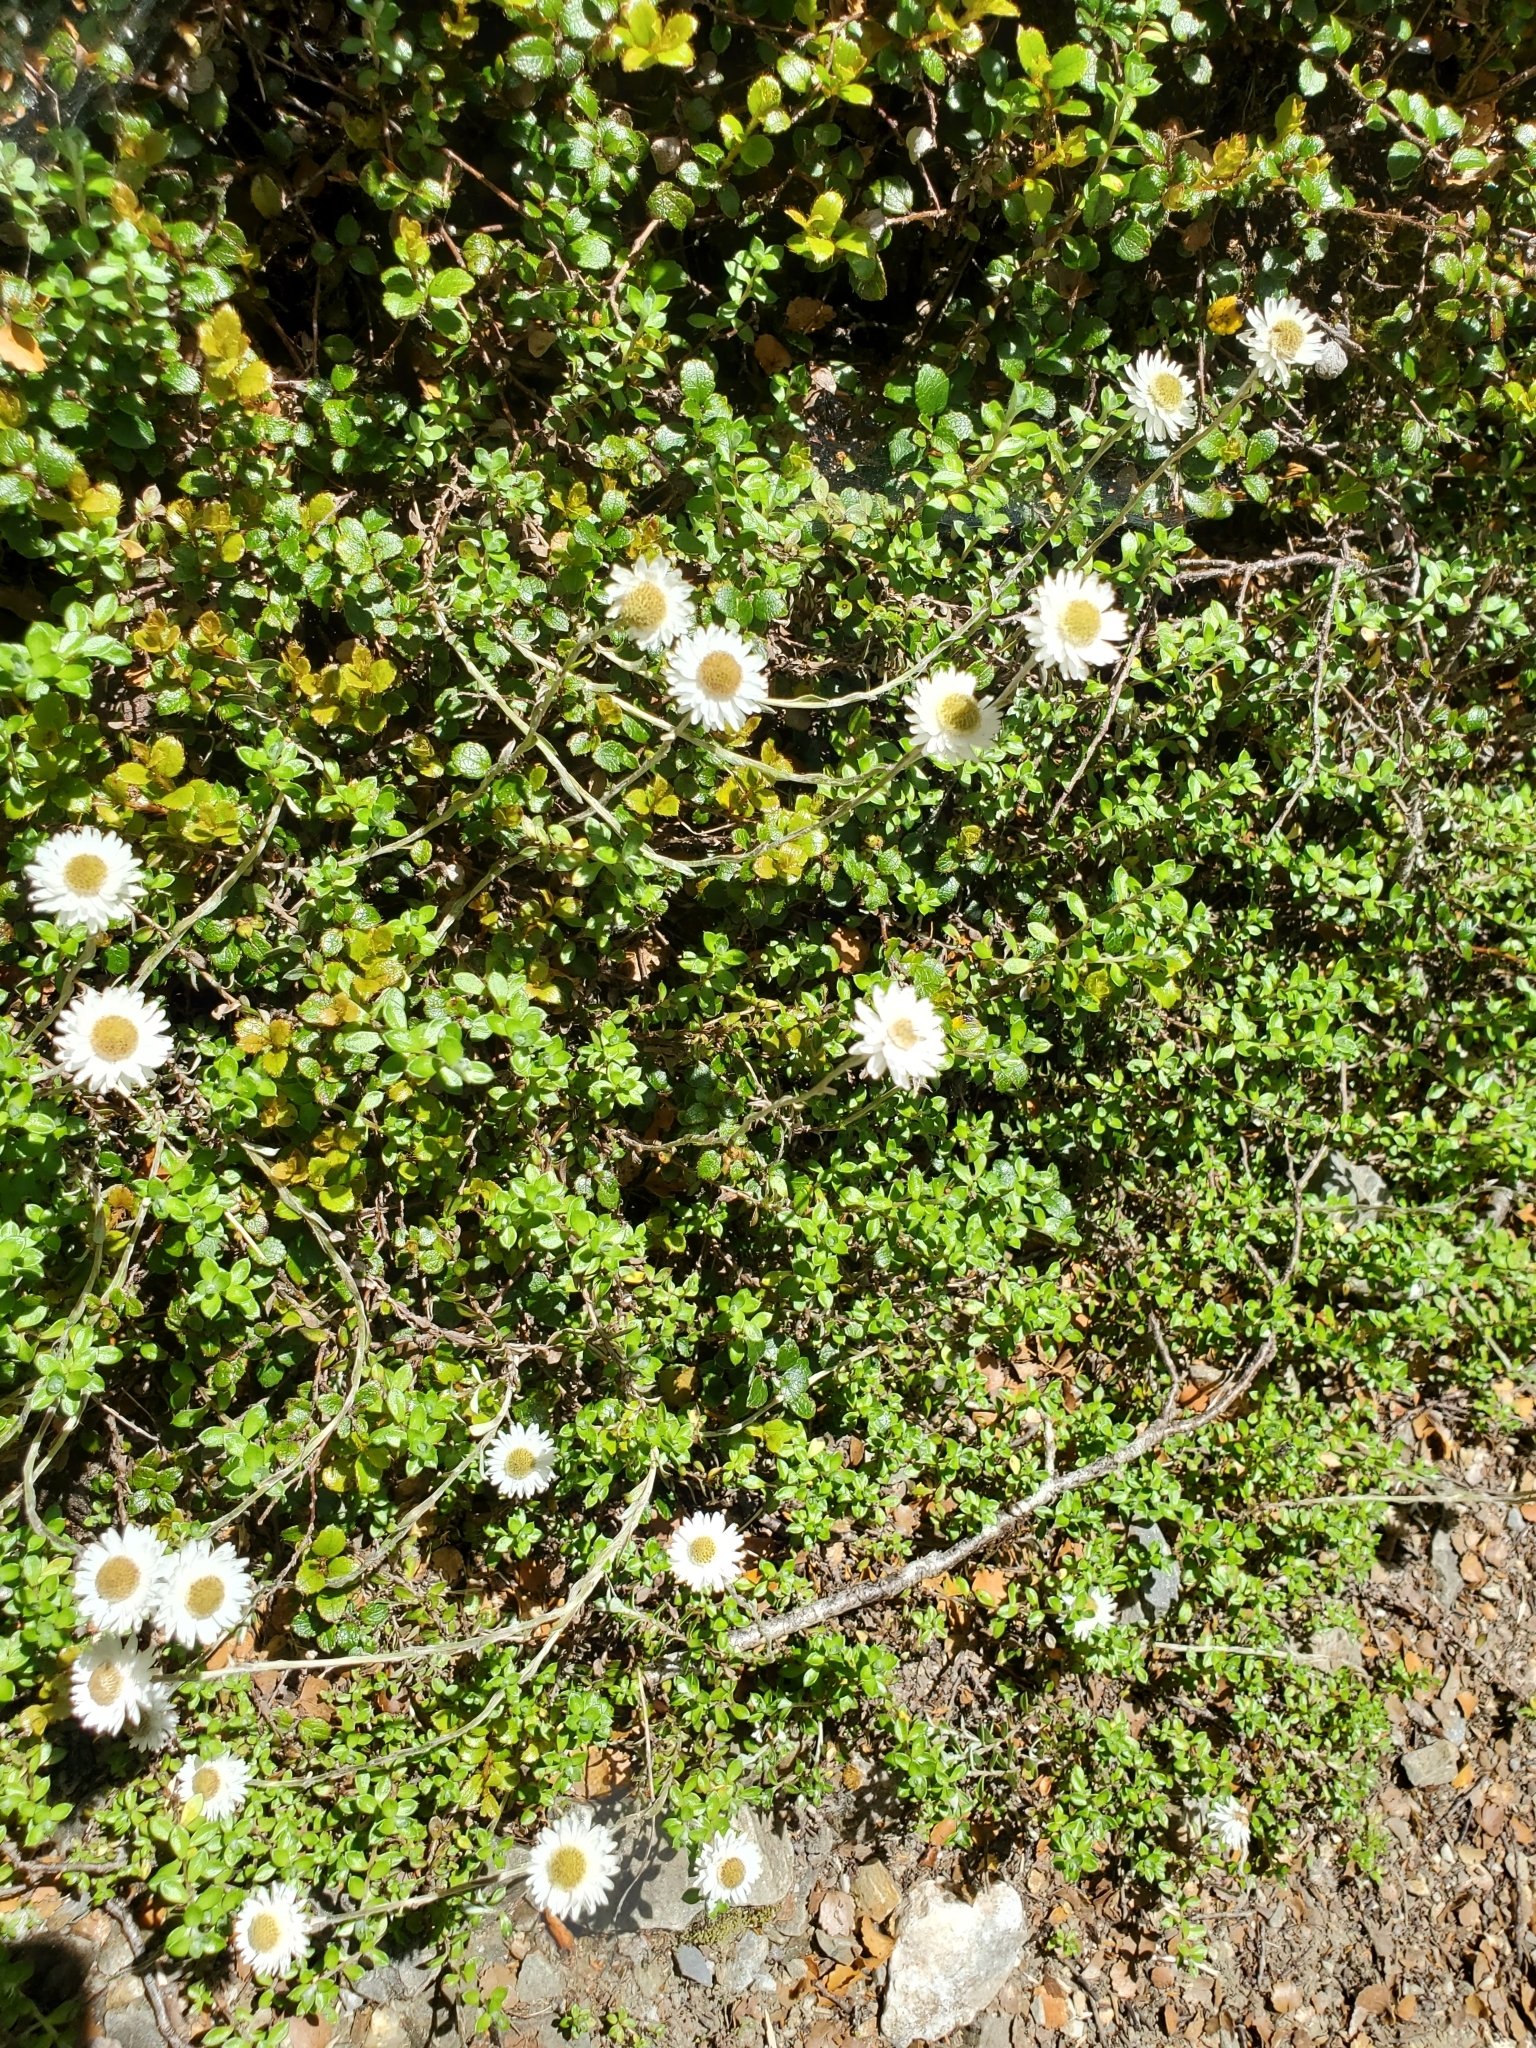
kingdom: Plantae
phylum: Tracheophyta
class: Magnoliopsida
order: Asterales
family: Asteraceae
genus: Anaphalioides
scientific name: Anaphalioides bellidioides
